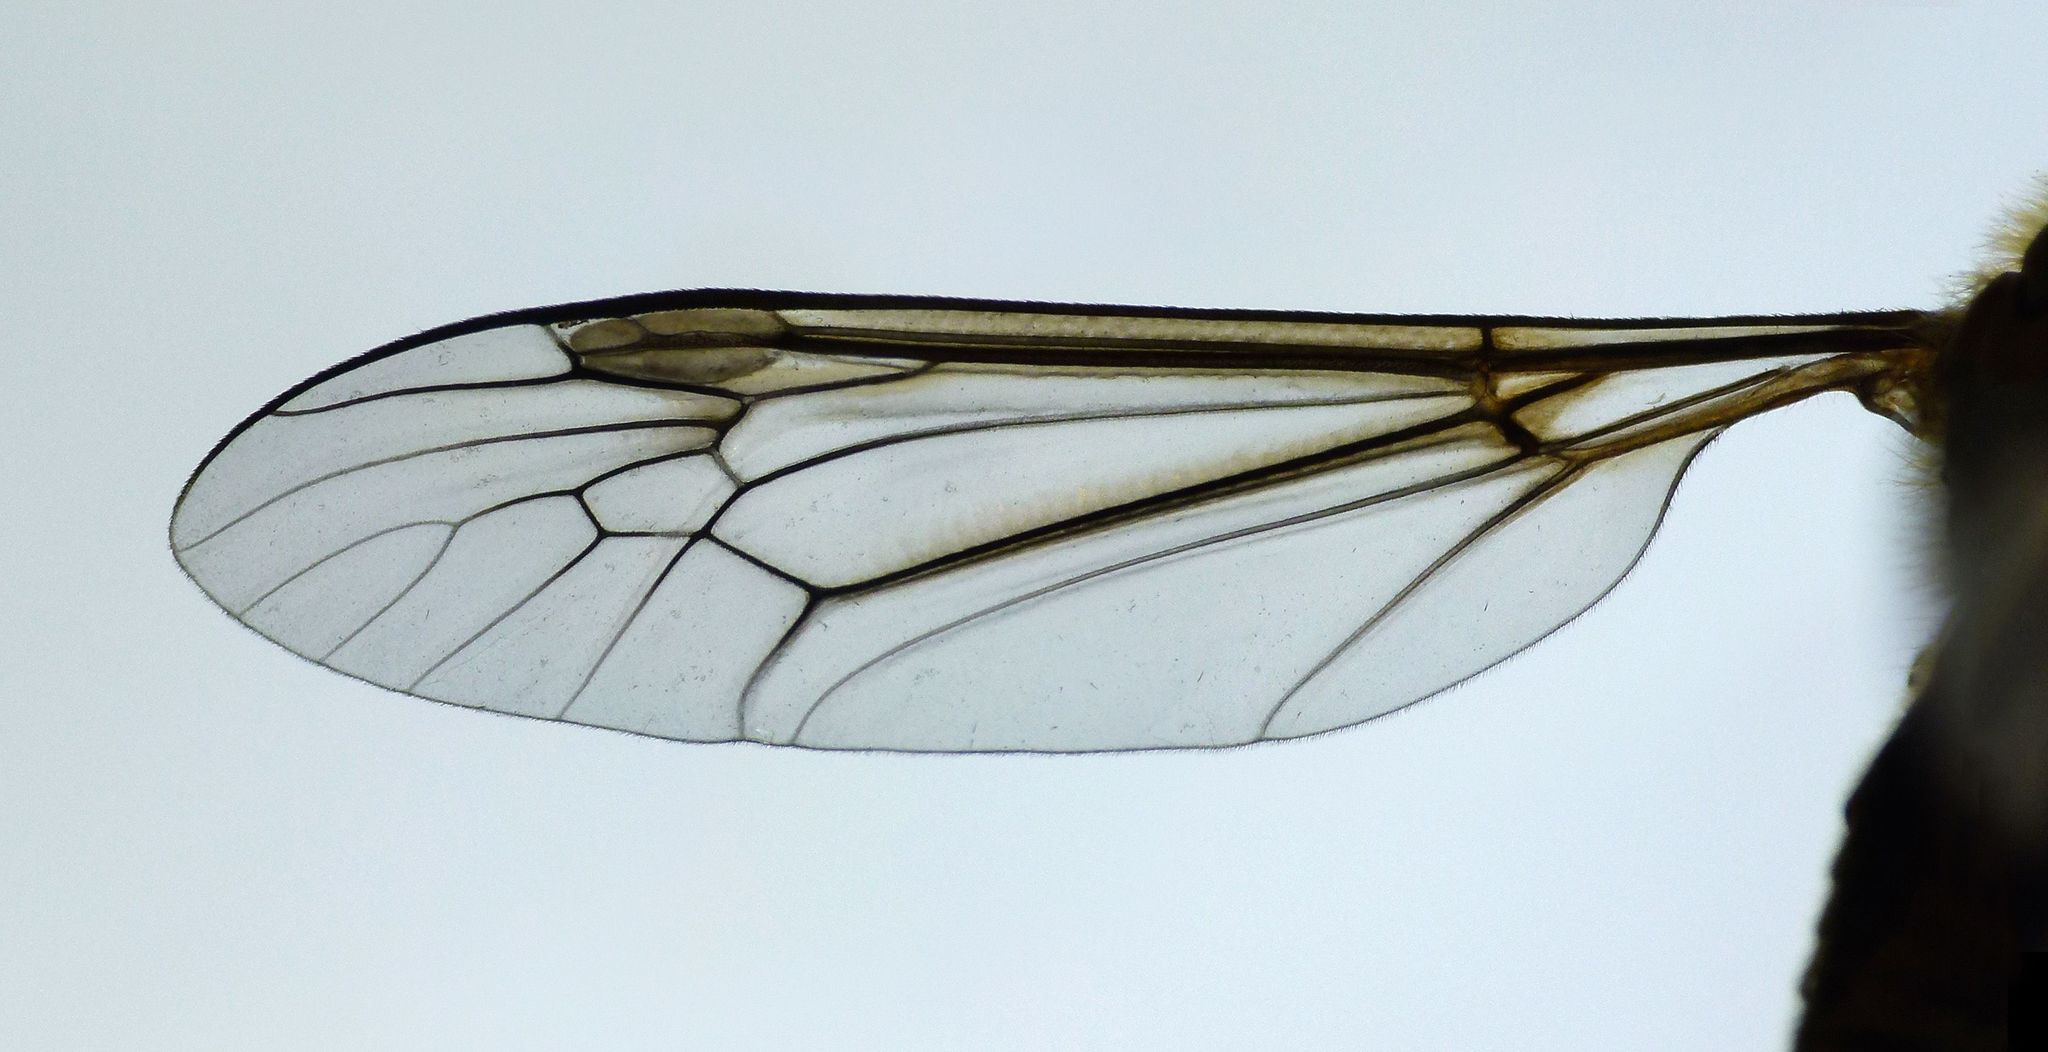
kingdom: Animalia
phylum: Arthropoda
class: Insecta
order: Diptera
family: Tipulidae
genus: Leptotarsus
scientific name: Leptotarsus vulpinus
